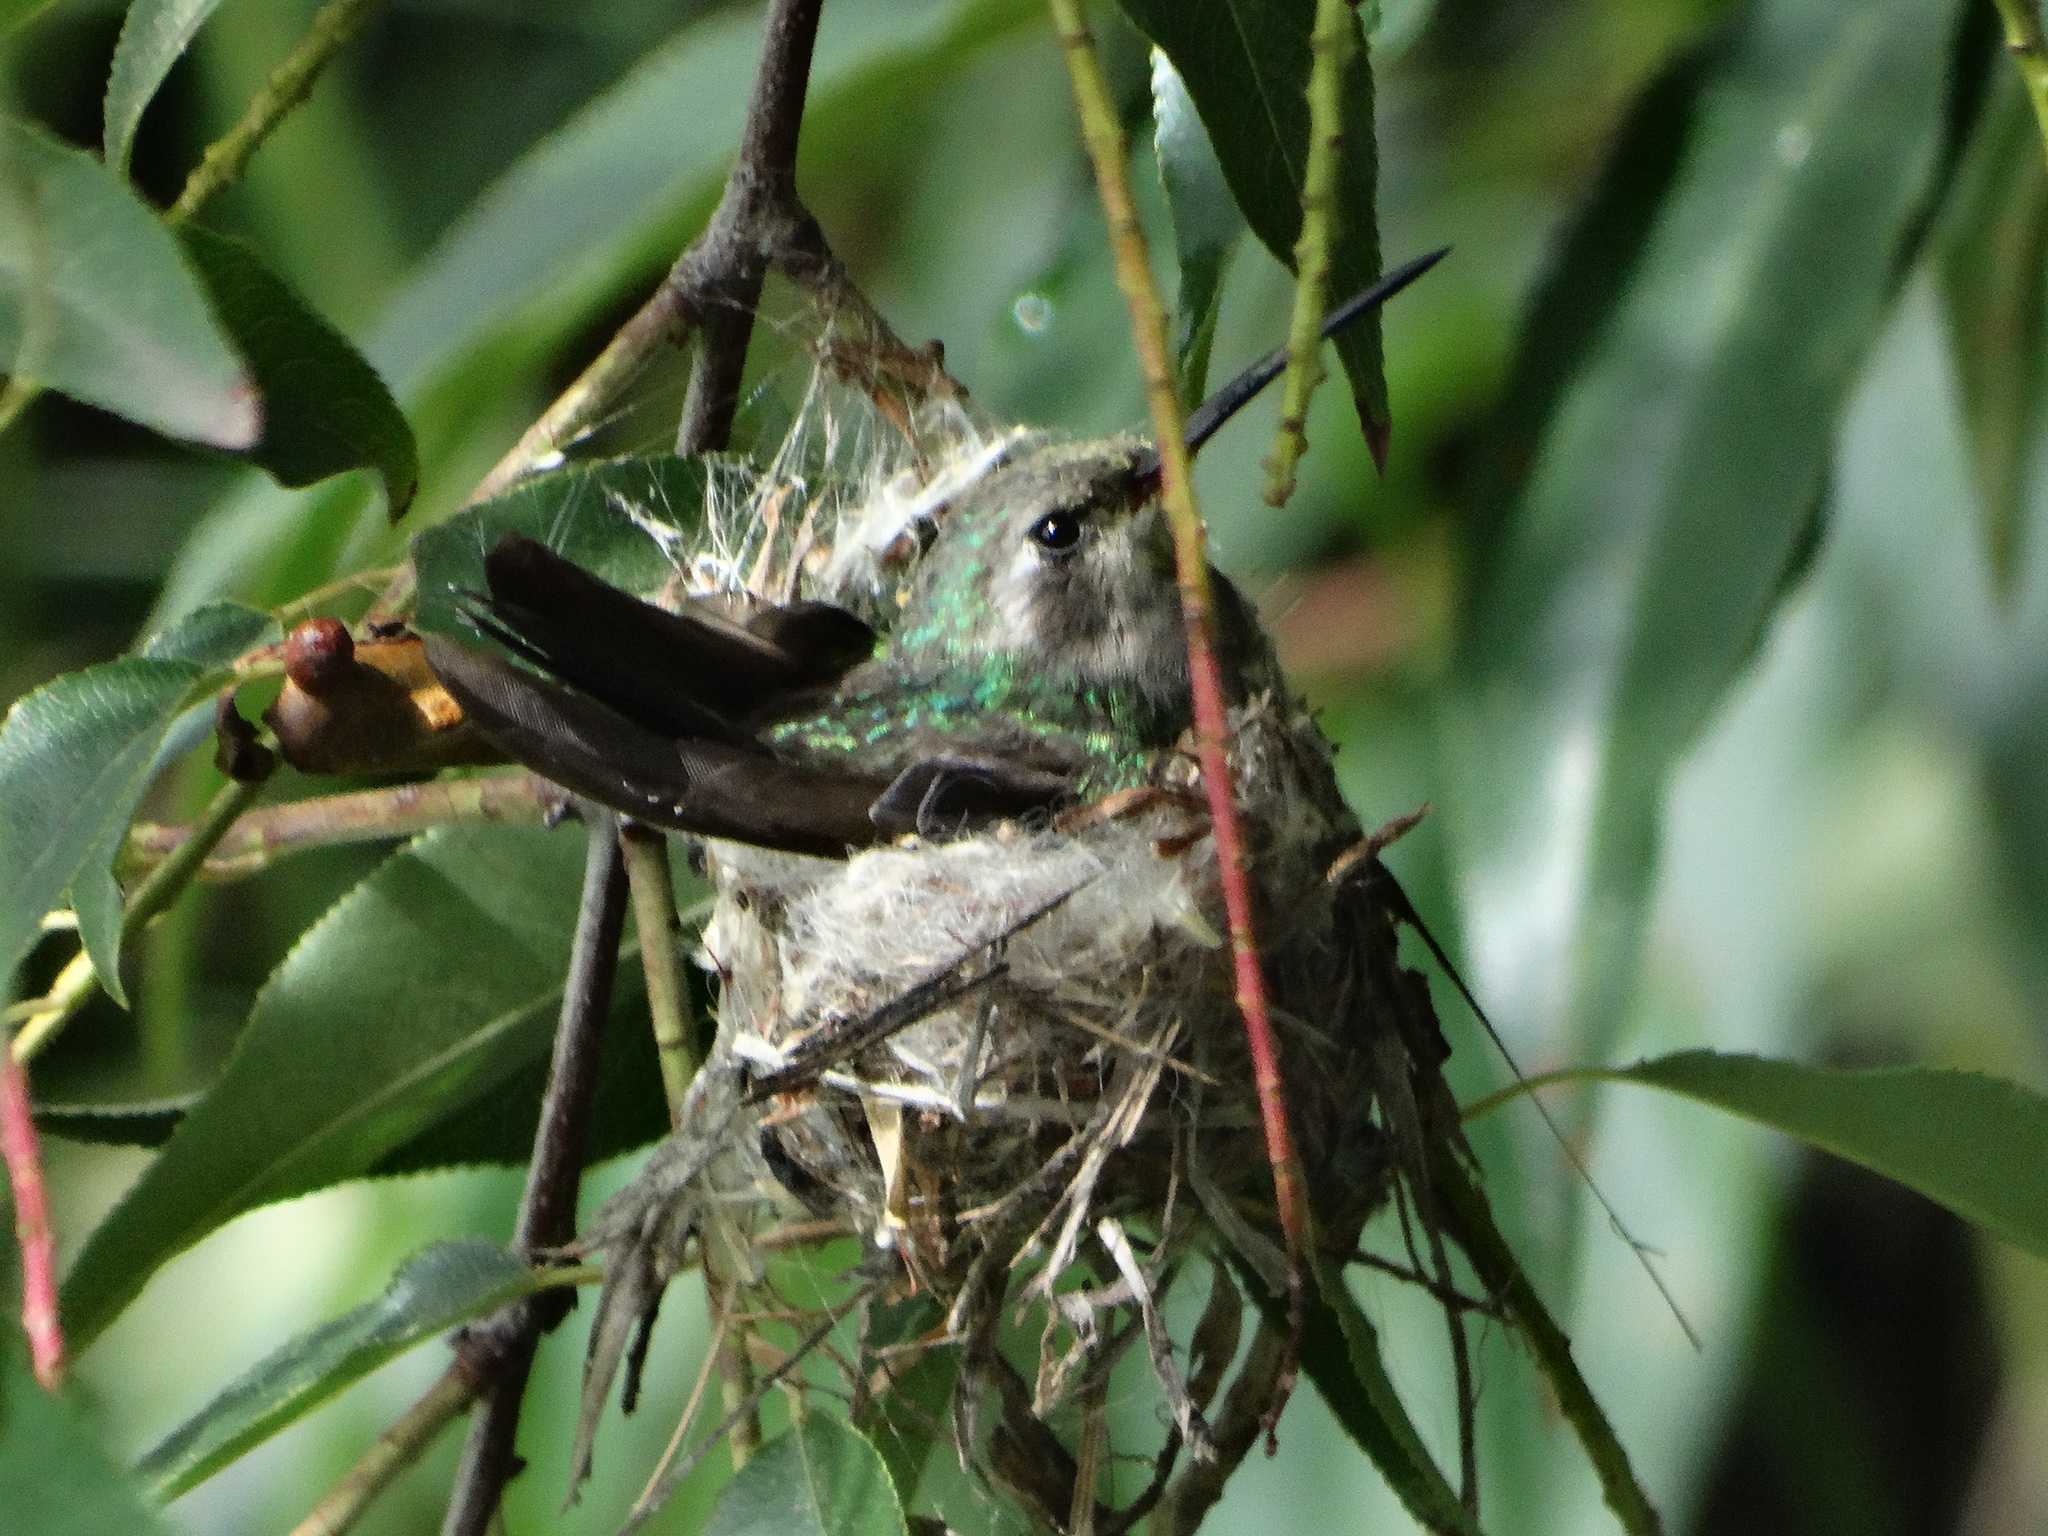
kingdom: Animalia
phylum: Chordata
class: Aves
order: Apodiformes
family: Trochilidae
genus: Cynanthus
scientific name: Cynanthus latirostris
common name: Broad-billed hummingbird
